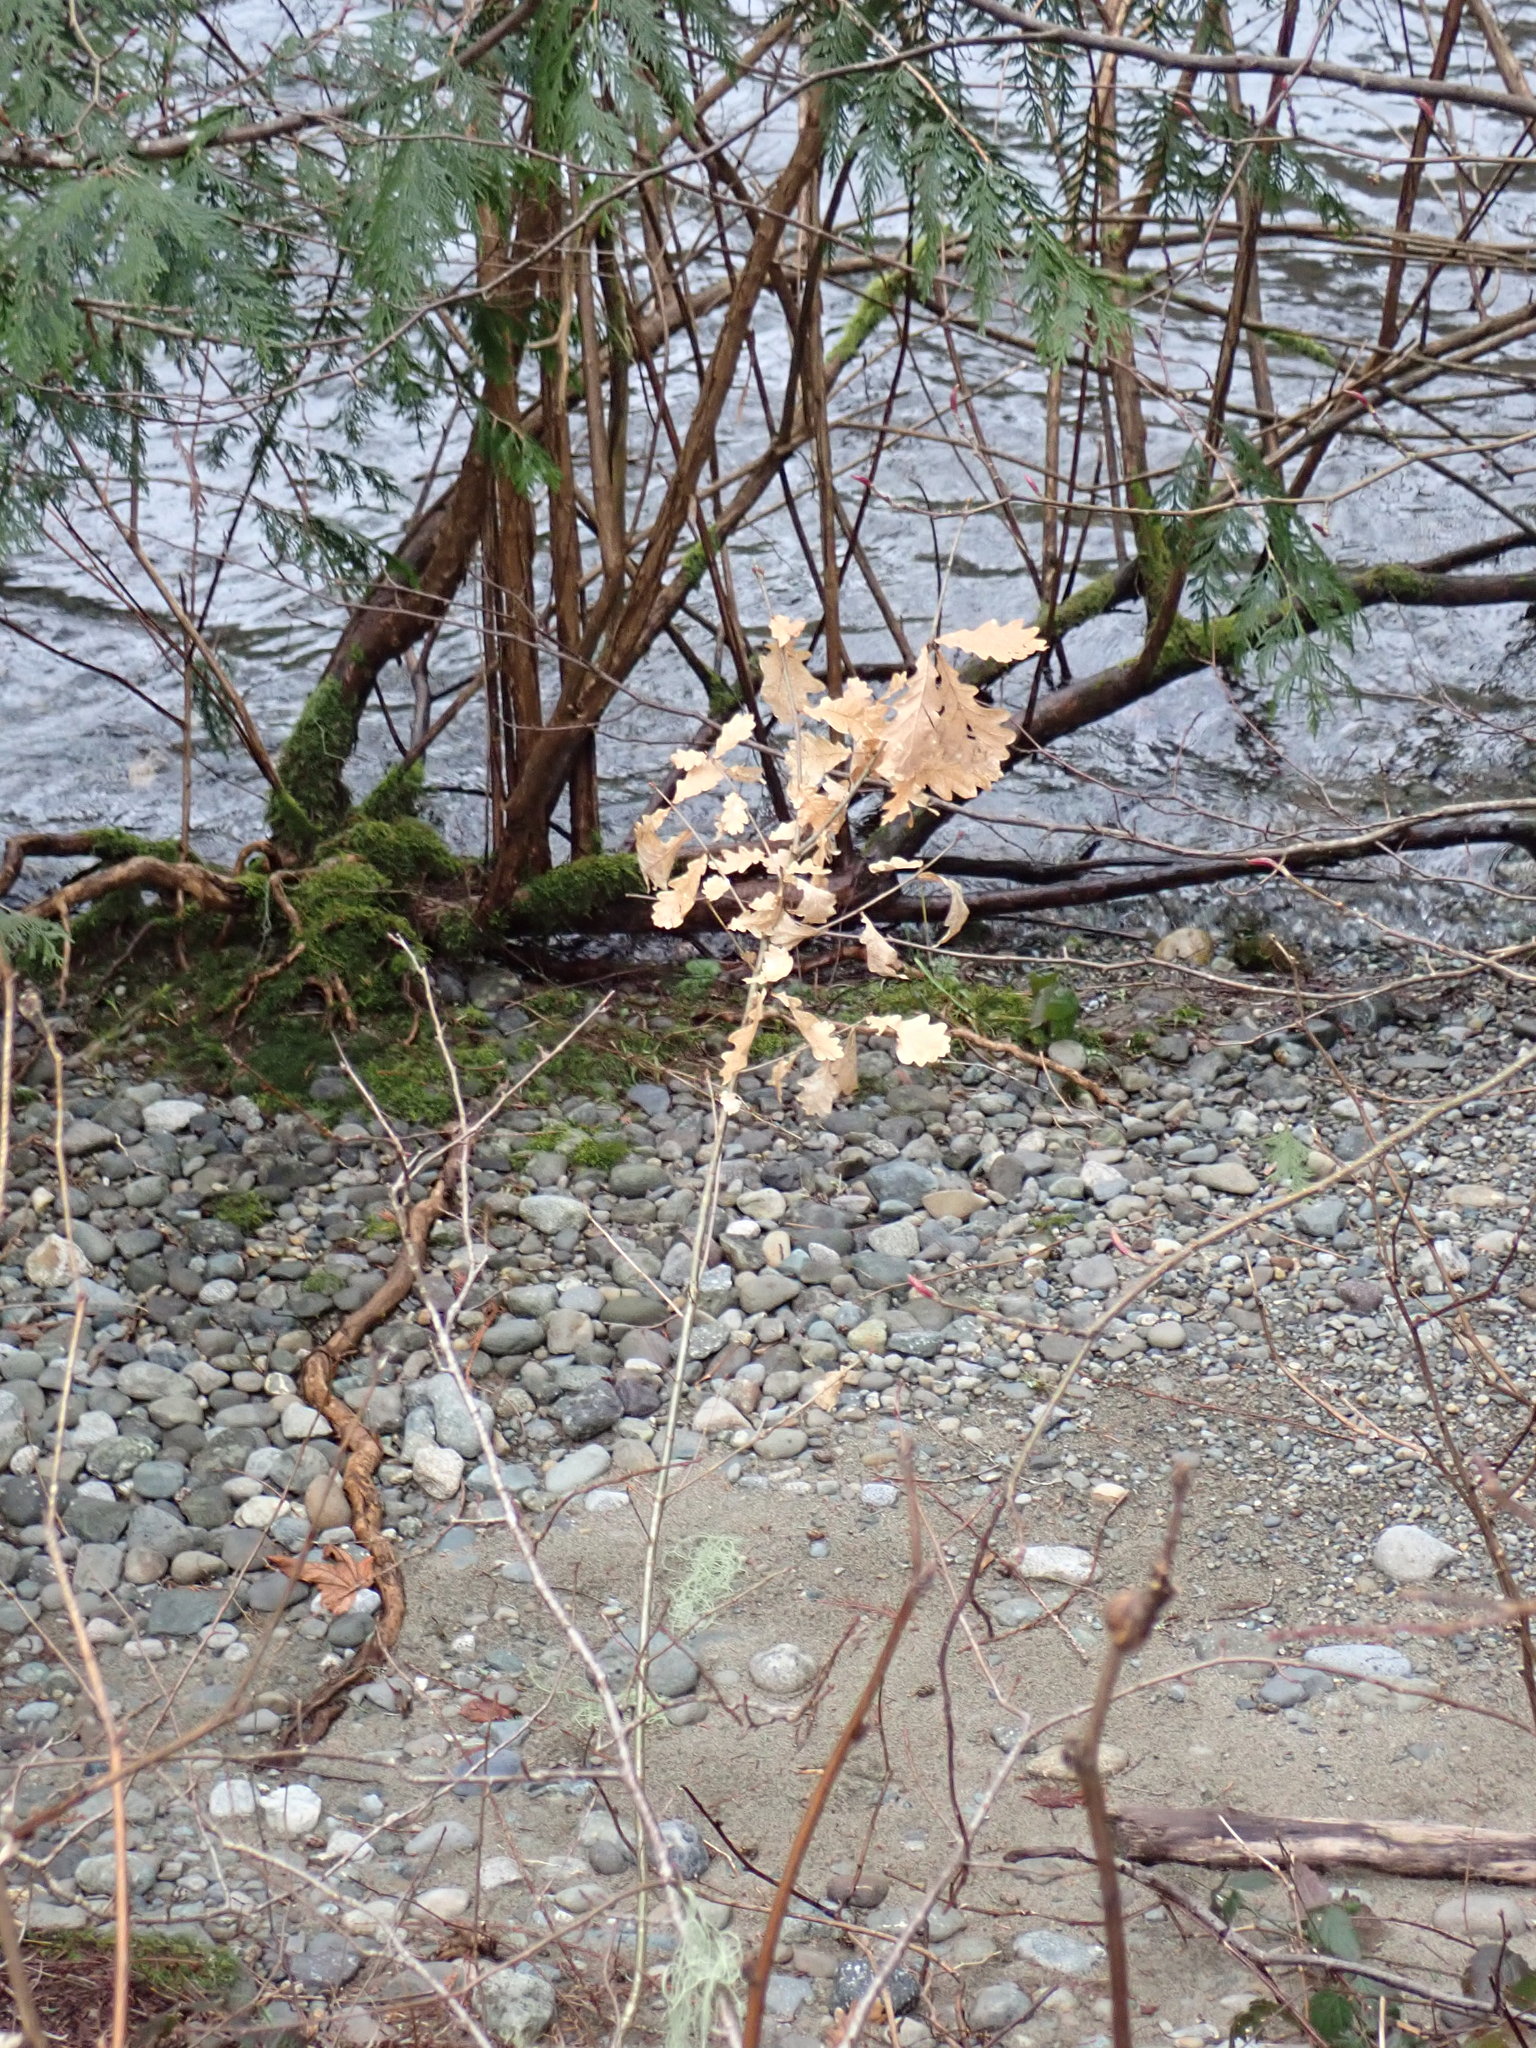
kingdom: Plantae
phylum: Tracheophyta
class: Magnoliopsida
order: Fagales
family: Fagaceae
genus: Quercus
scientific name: Quercus robur
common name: Pedunculate oak
